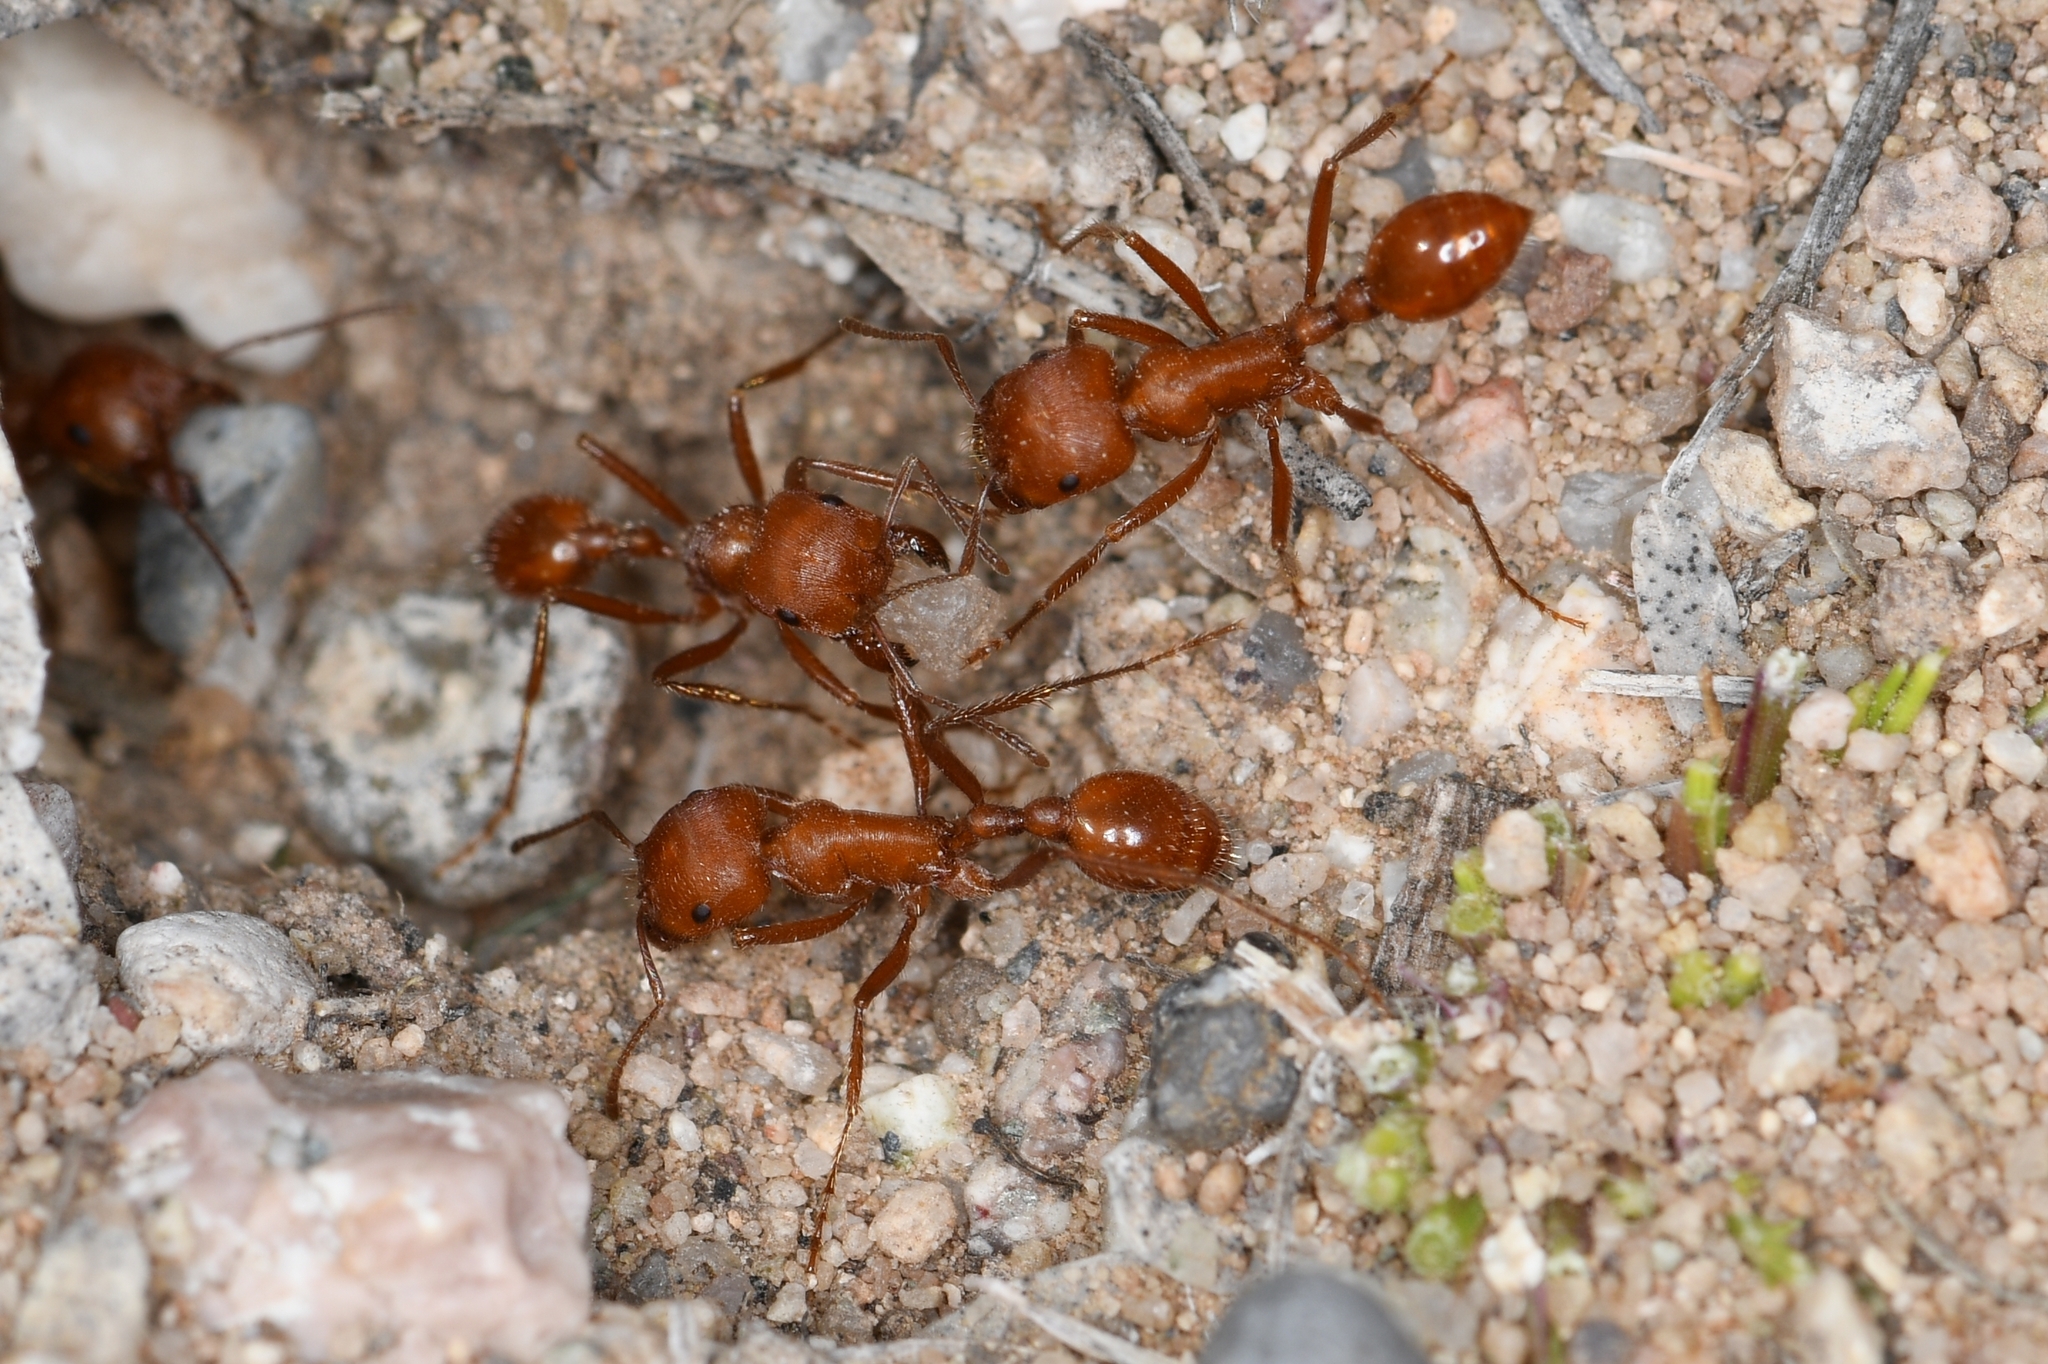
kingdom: Animalia
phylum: Arthropoda
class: Insecta
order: Hymenoptera
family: Formicidae
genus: Pogonomyrmex
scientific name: Pogonomyrmex maricopa
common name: Maricopa harvester ant
